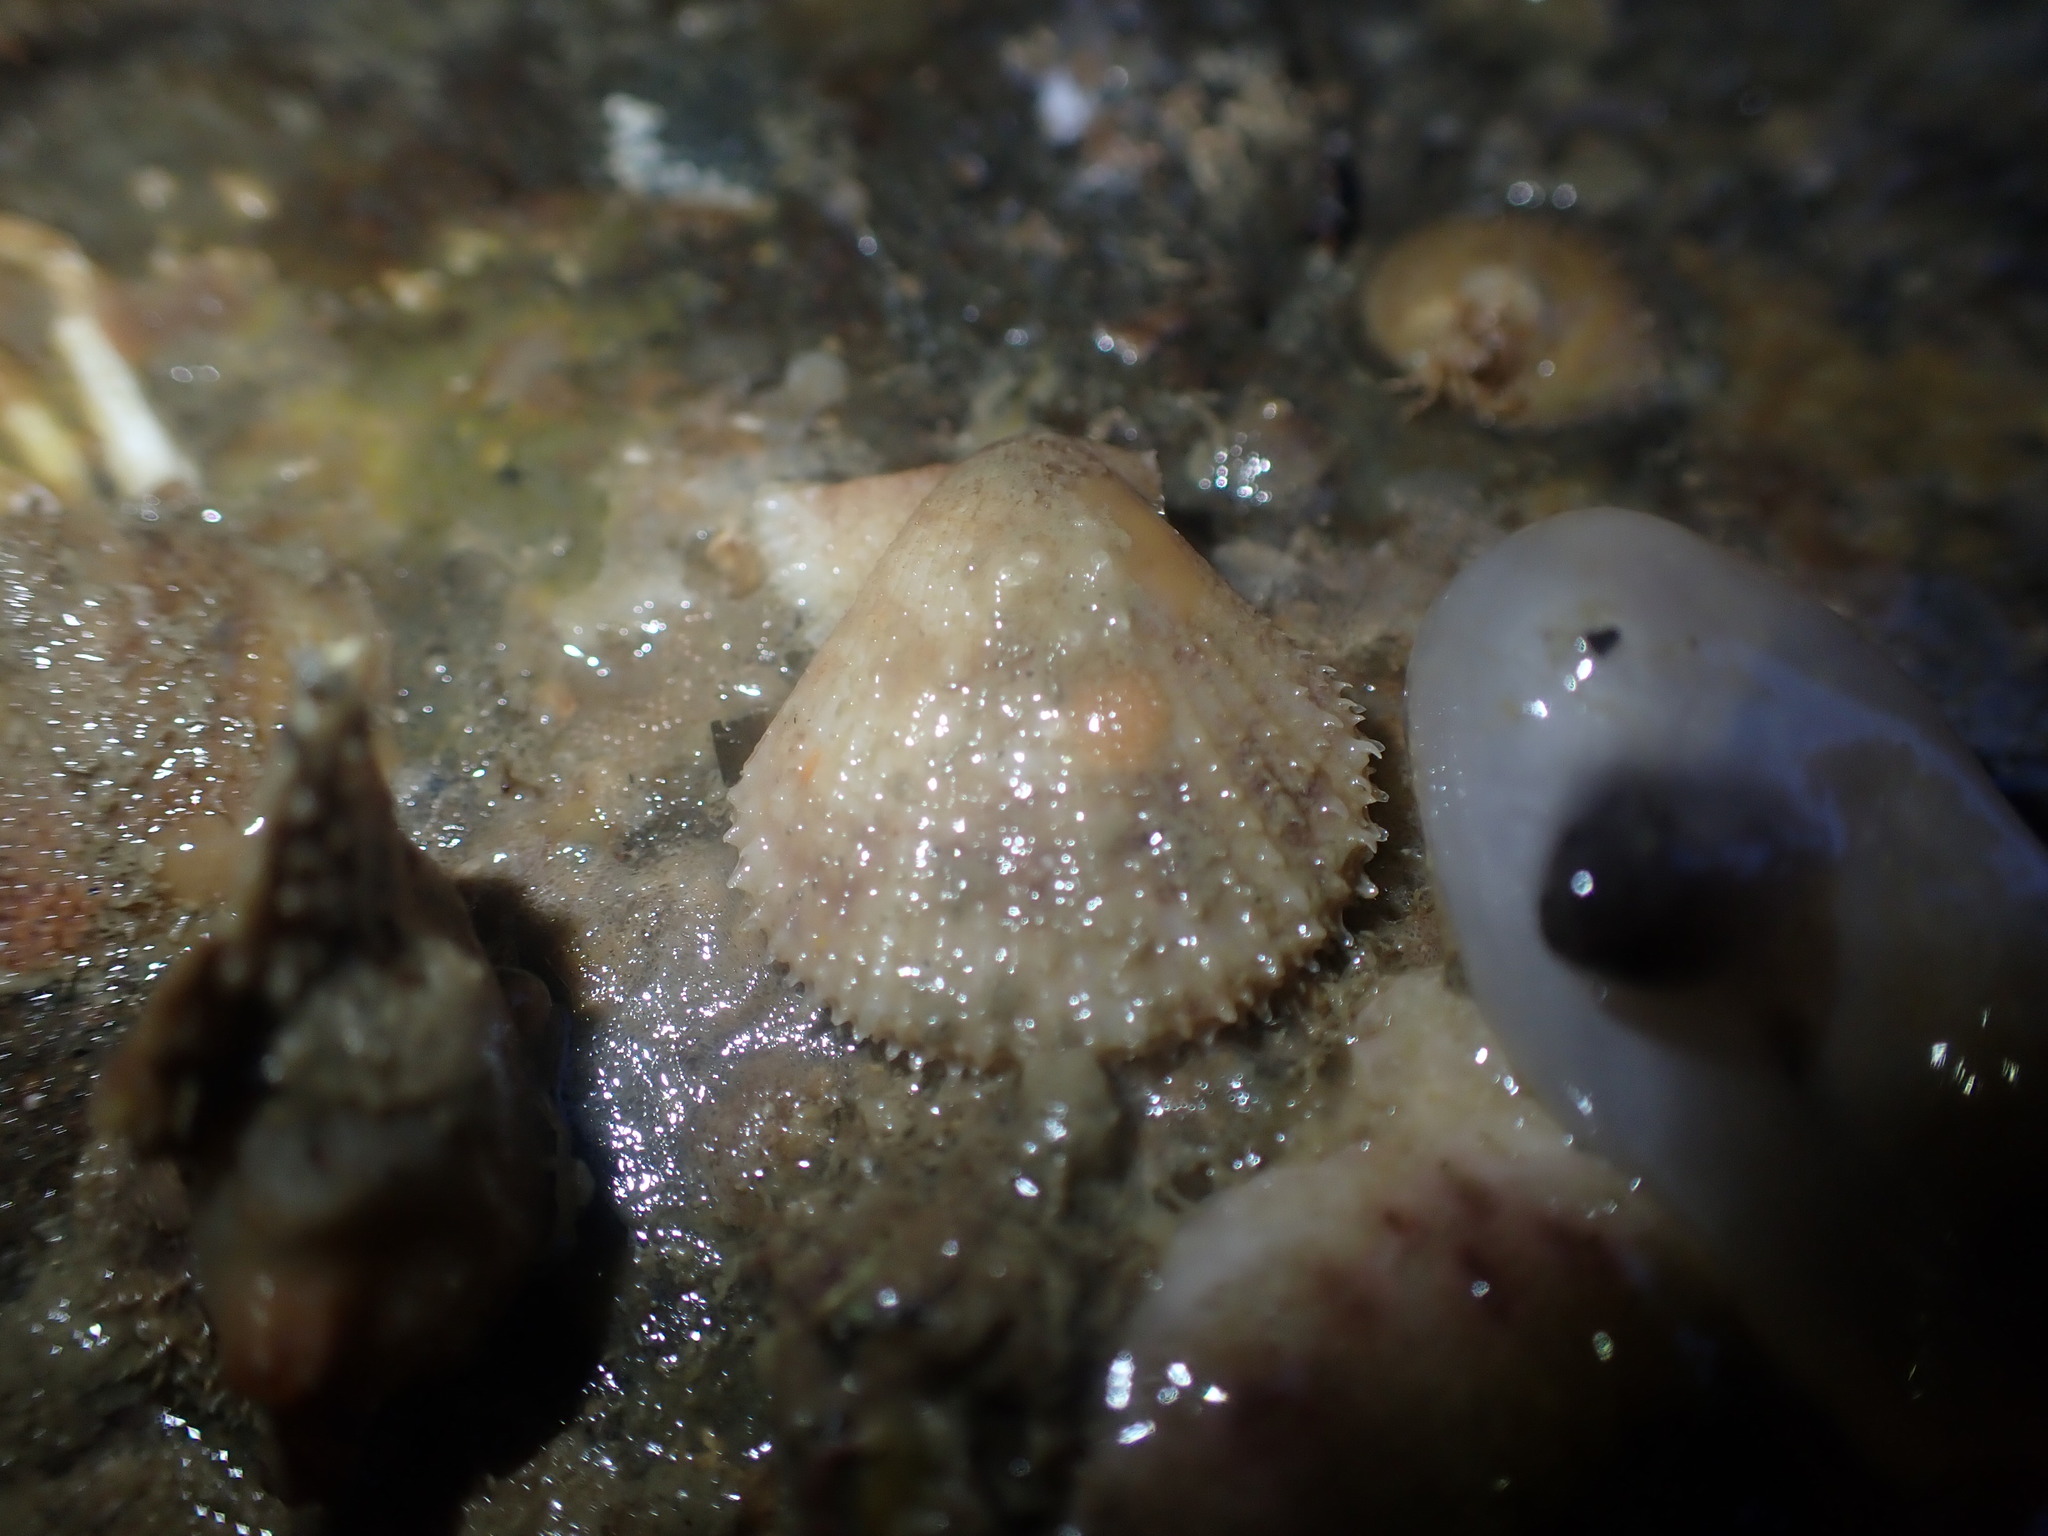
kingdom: Animalia
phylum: Mollusca
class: Bivalvia
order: Pectinida
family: Pectinidae
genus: Talochlamys
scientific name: Talochlamys zelandiae
